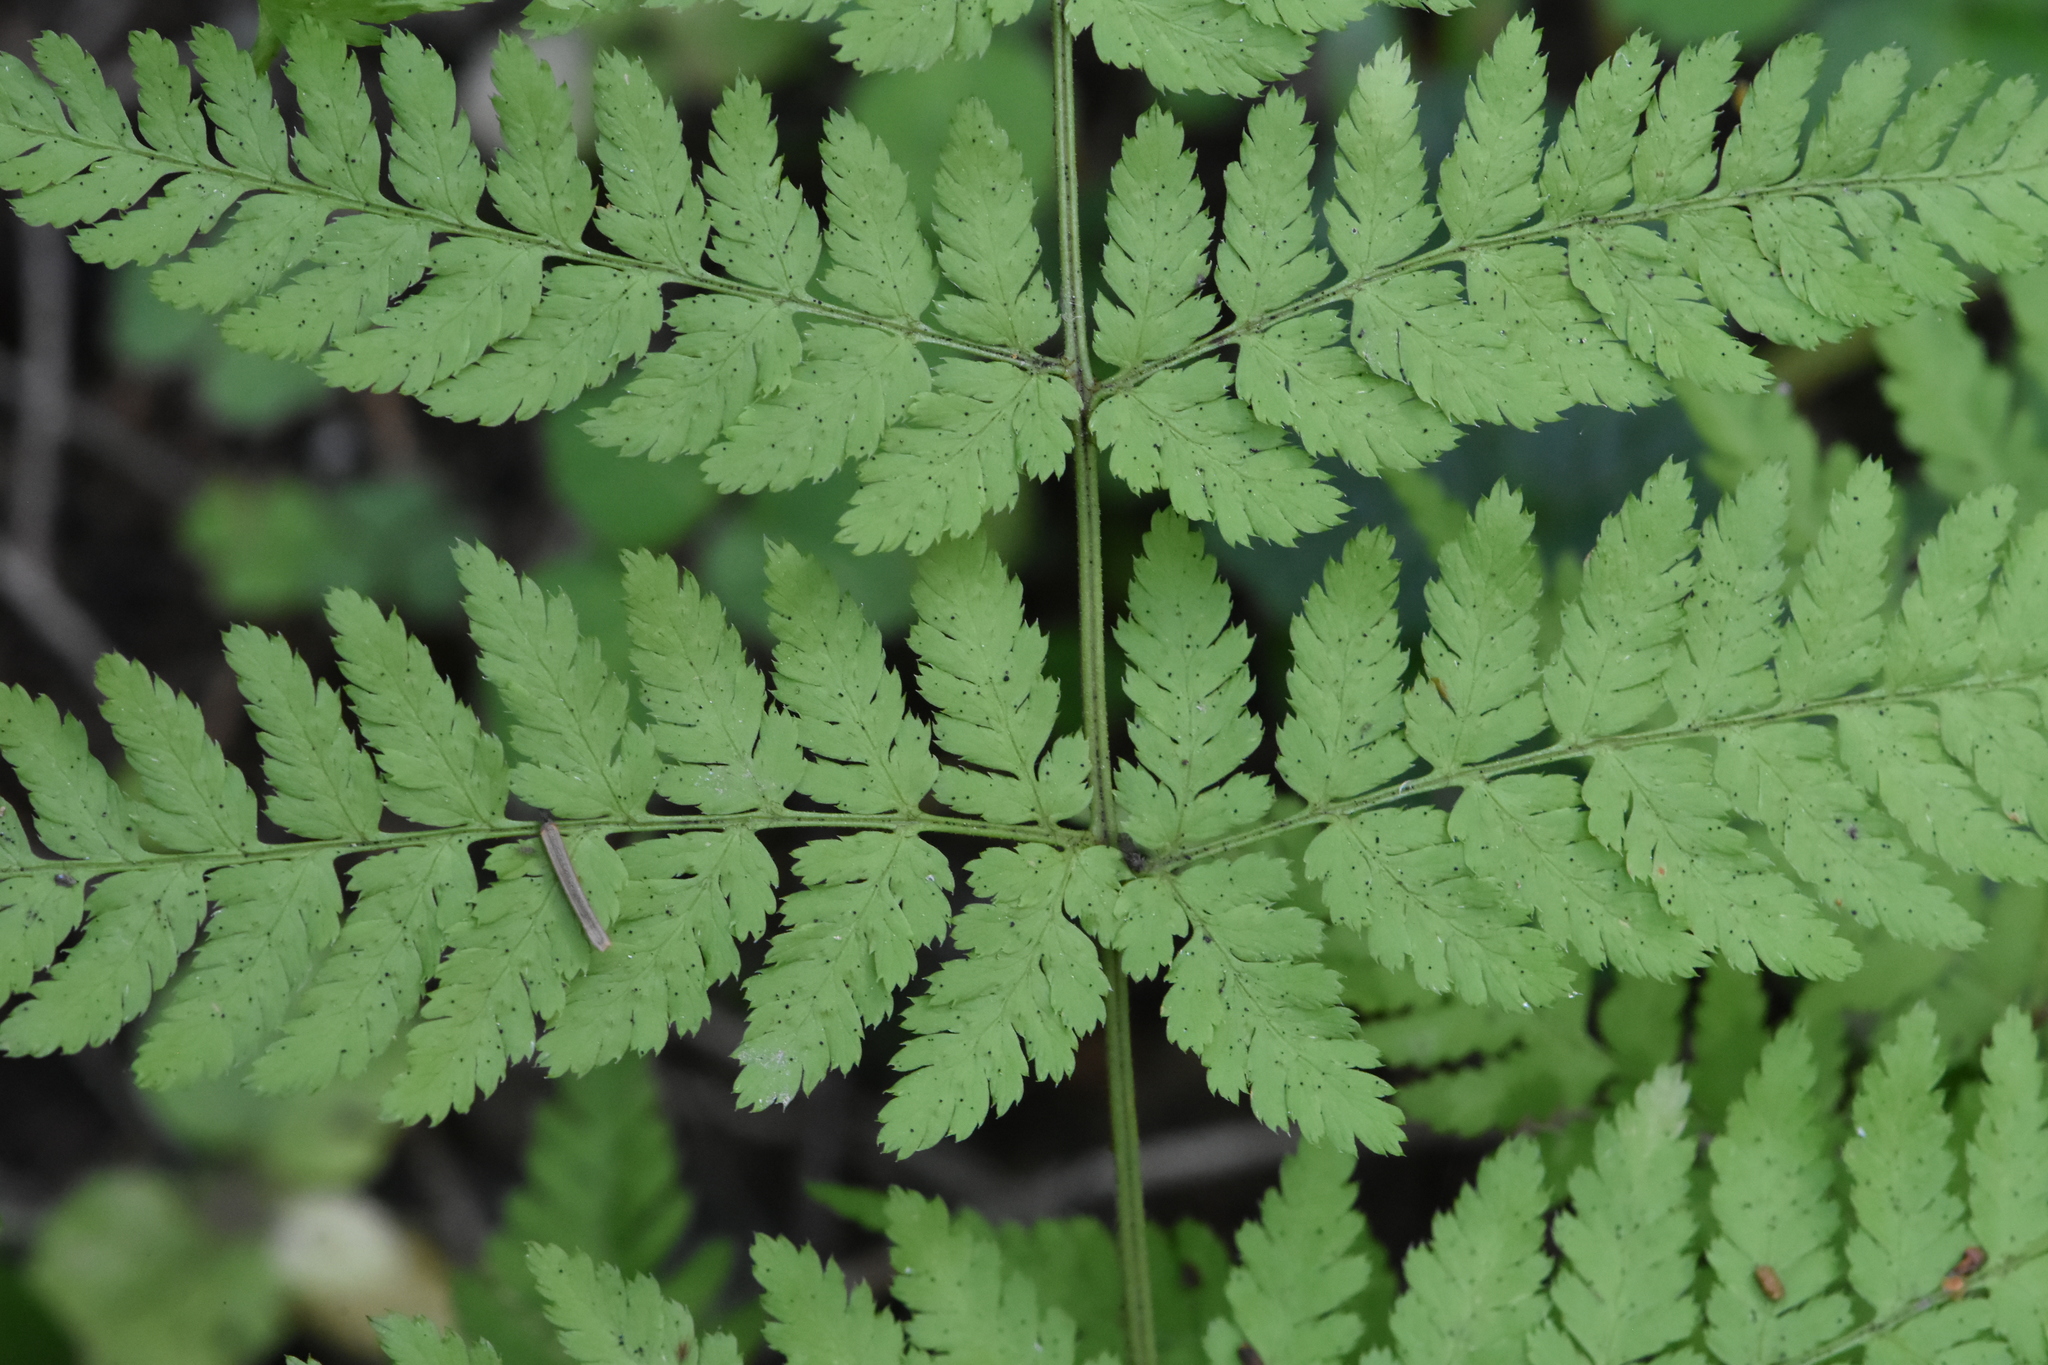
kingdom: Plantae
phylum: Tracheophyta
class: Polypodiopsida
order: Polypodiales
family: Dryopteridaceae
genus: Dryopteris
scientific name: Dryopteris expansa
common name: Northern buckler fern
